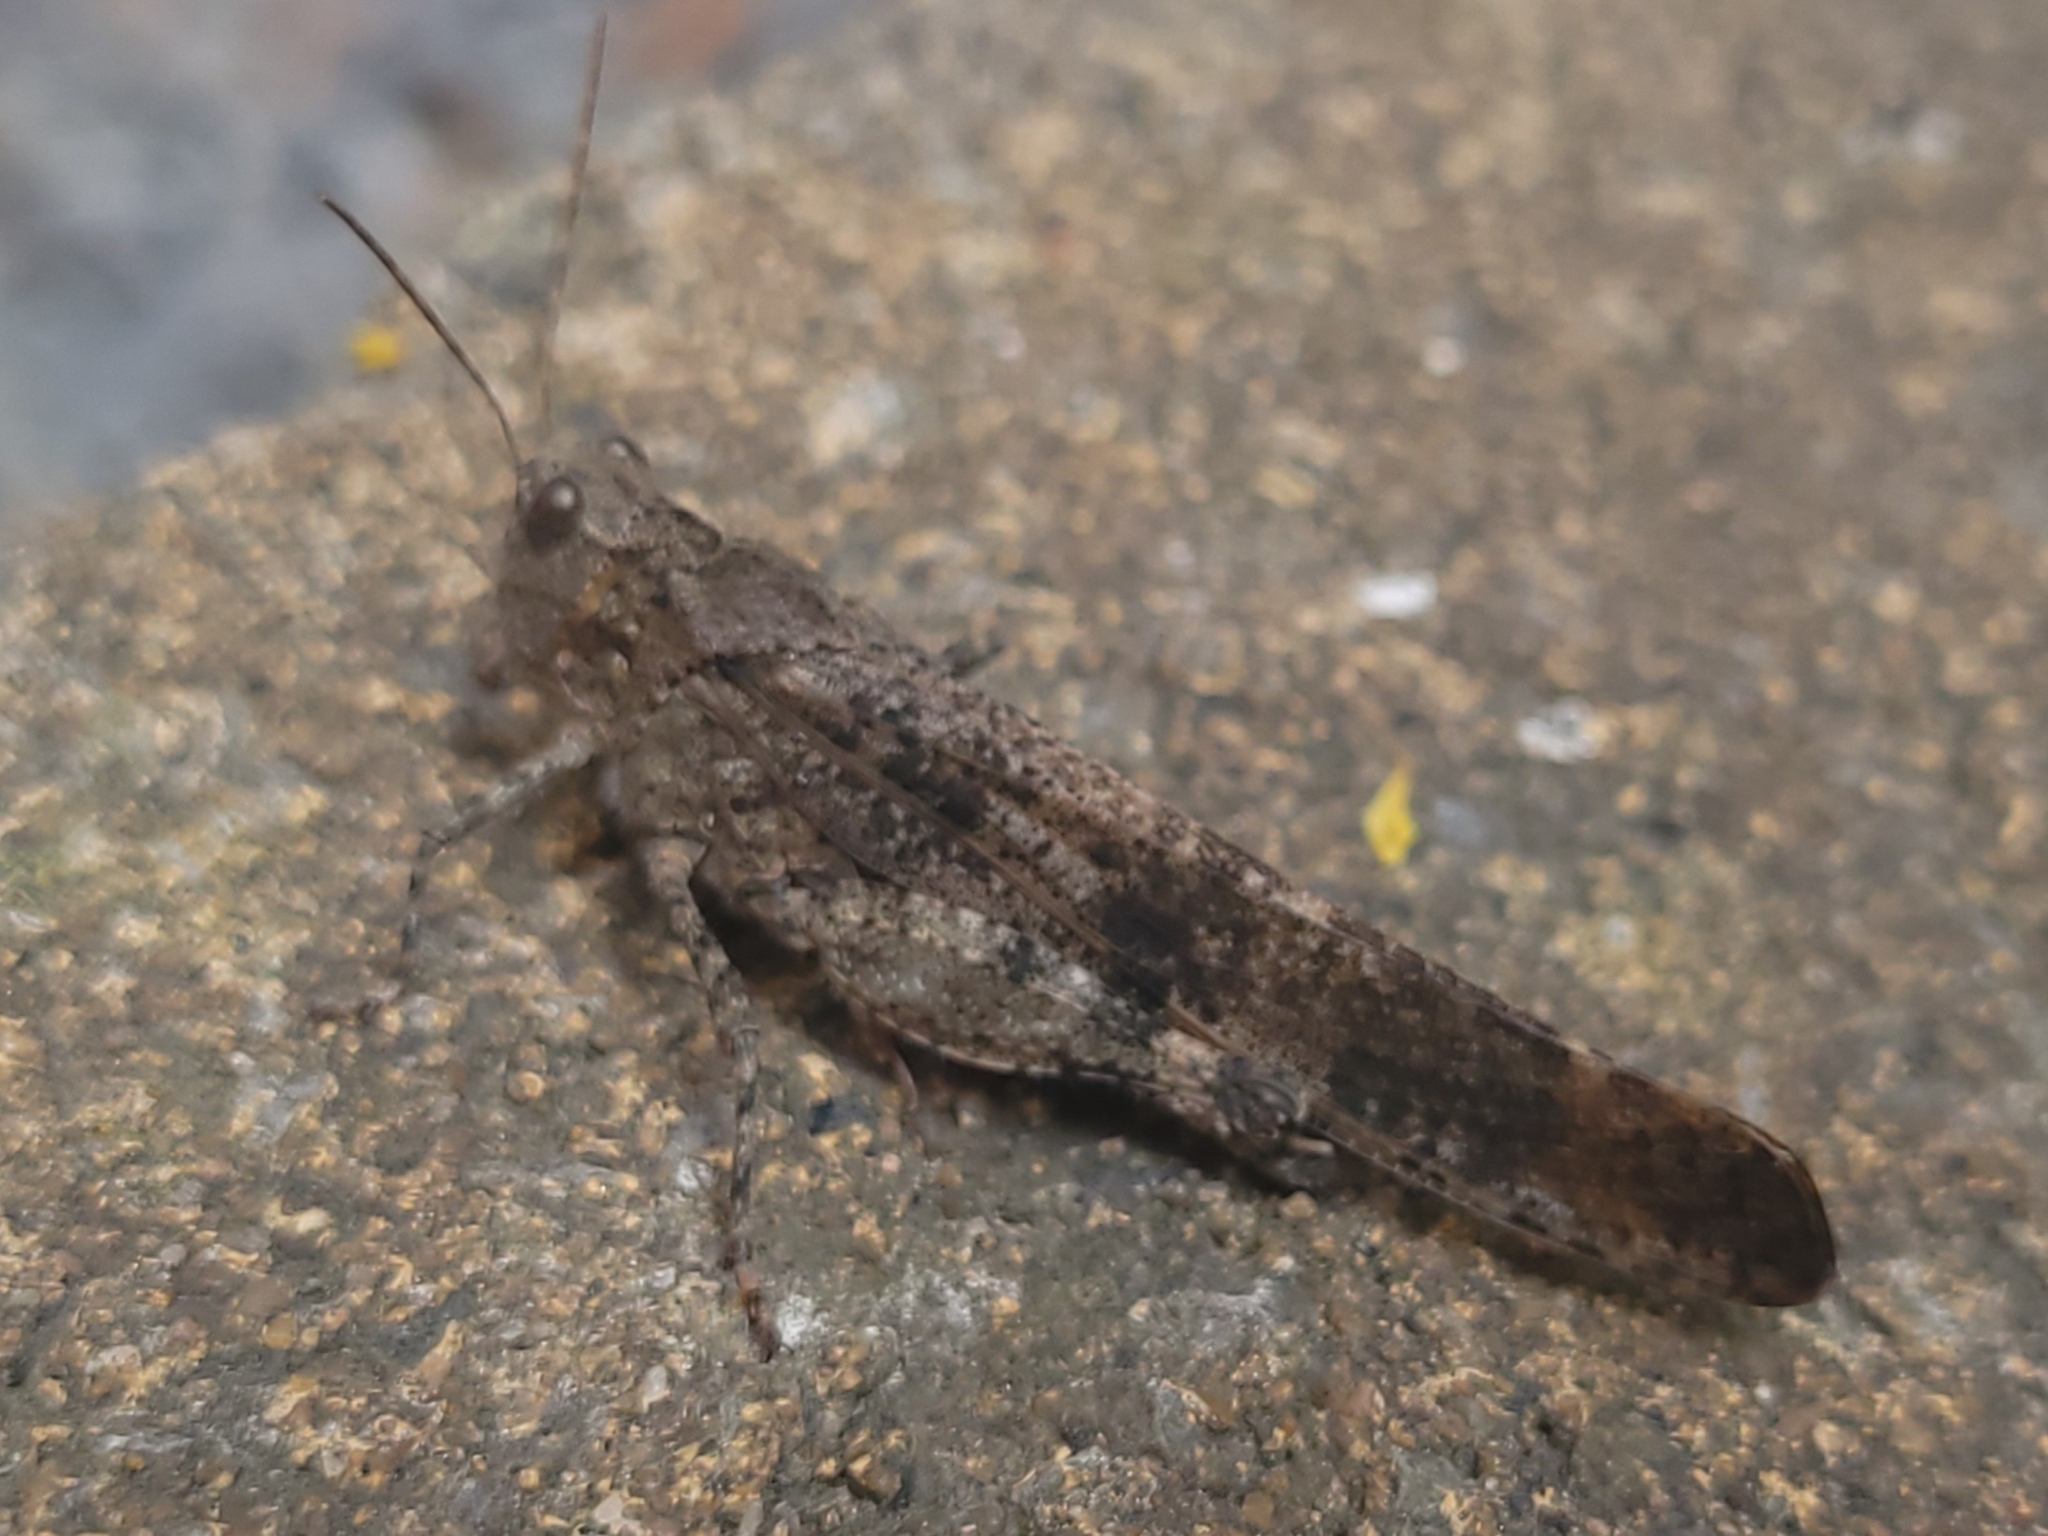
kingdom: Animalia
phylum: Arthropoda
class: Insecta
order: Orthoptera
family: Acrididae
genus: Dissosteira
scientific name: Dissosteira carolina
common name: Carolina grasshopper
